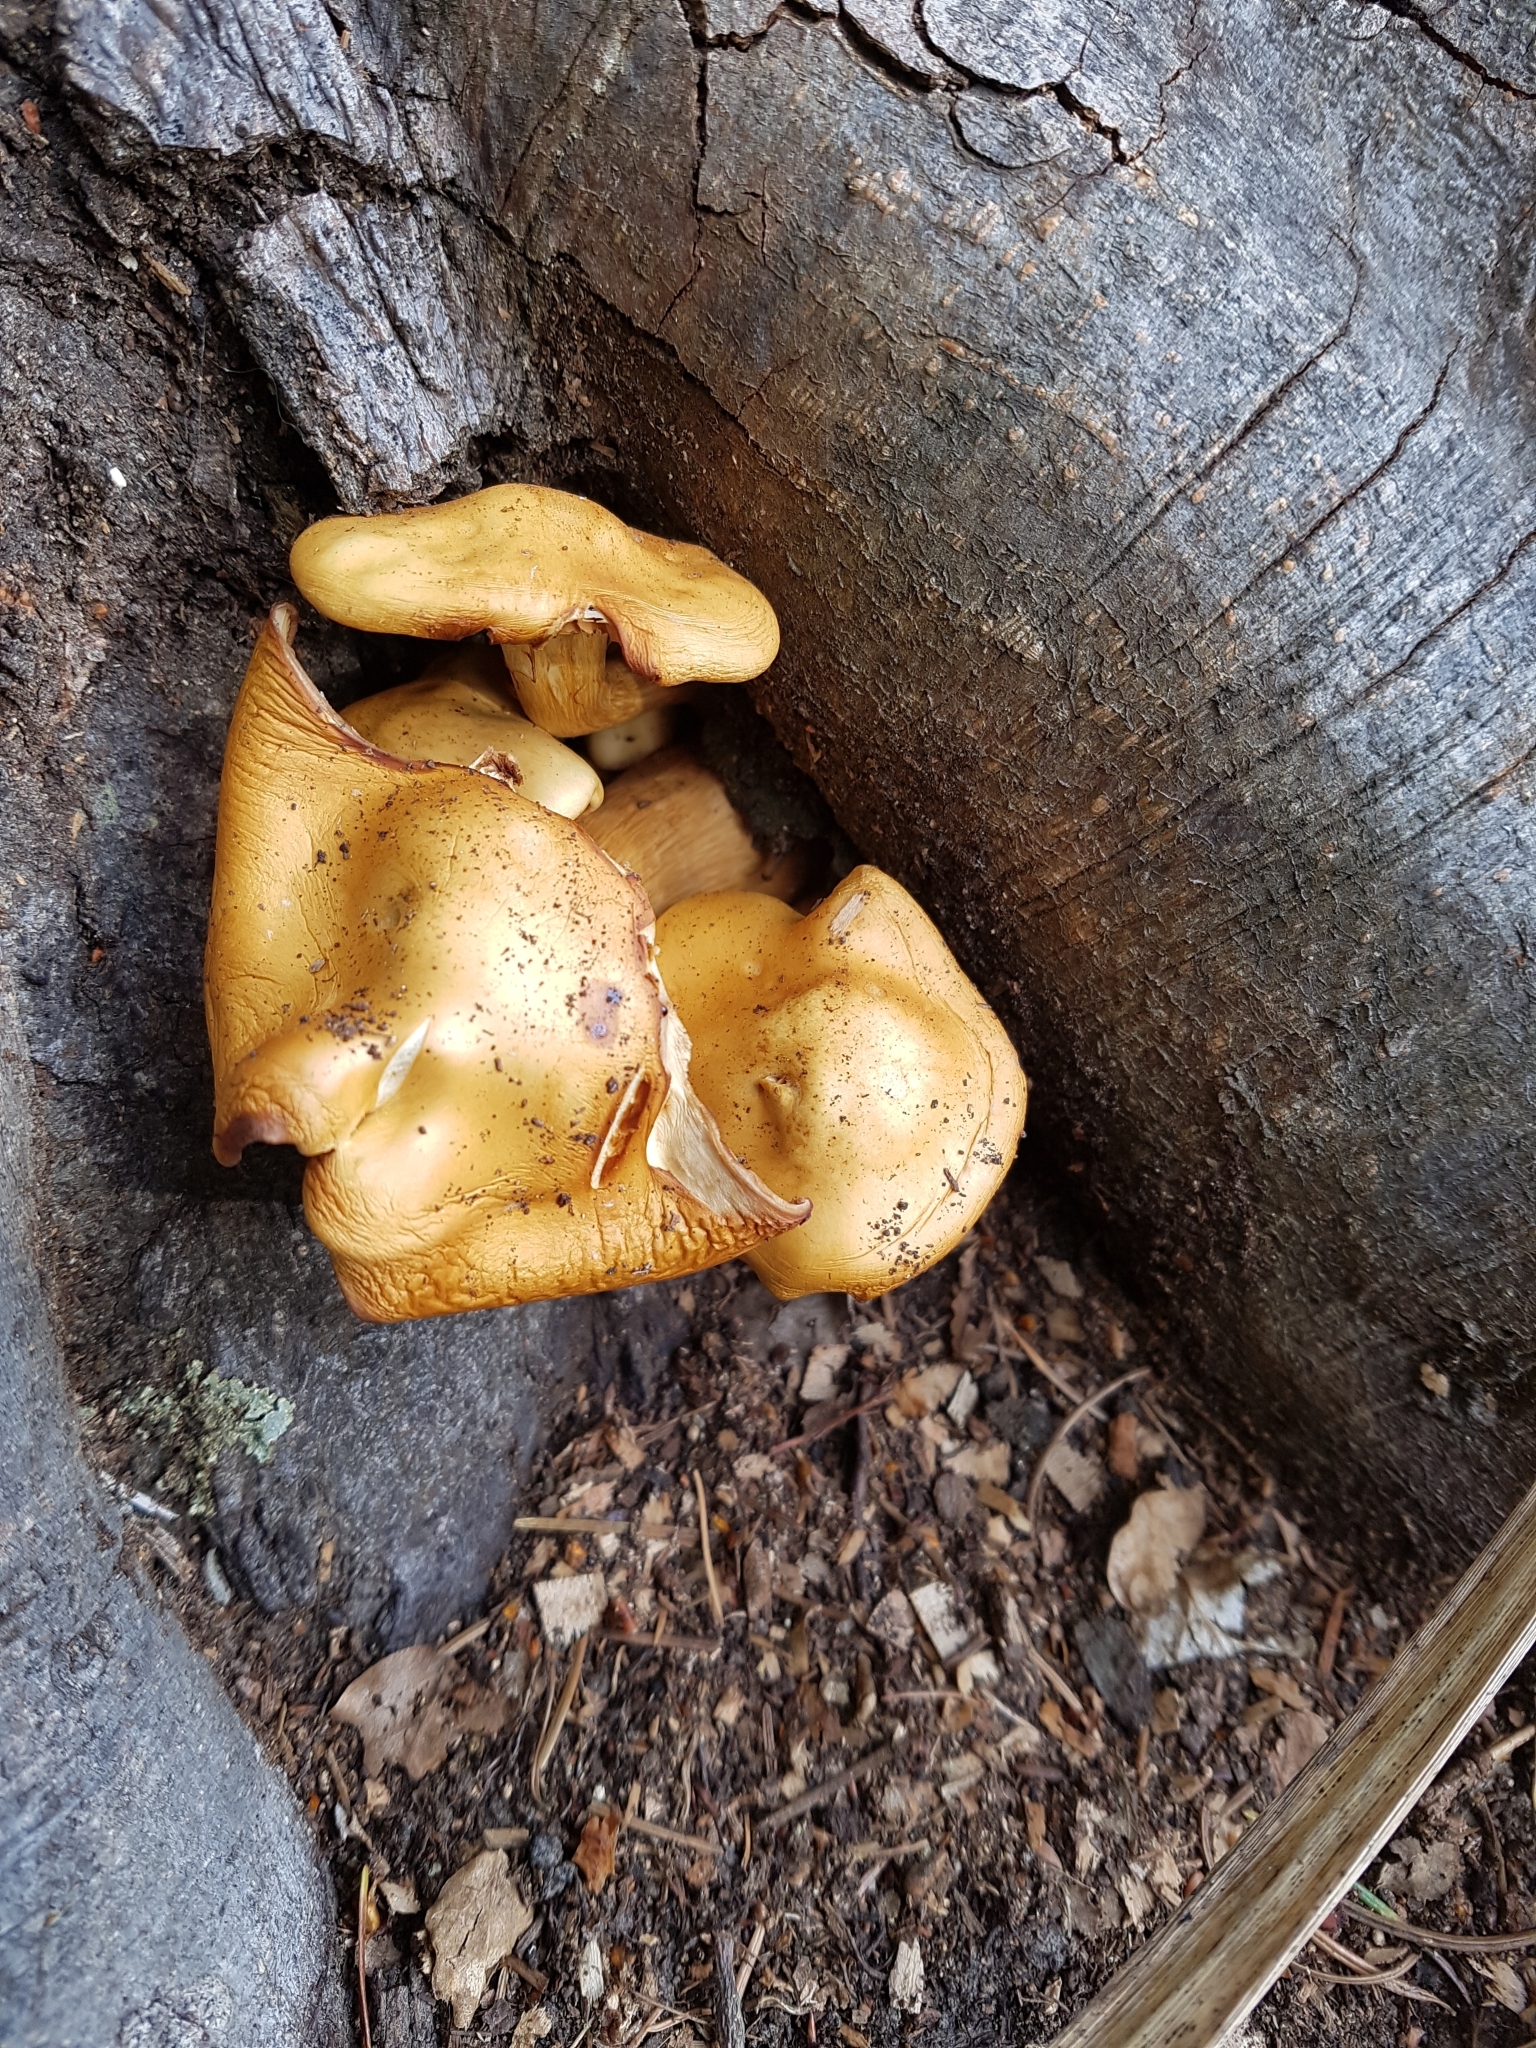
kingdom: Fungi
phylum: Basidiomycota
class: Agaricomycetes
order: Agaricales
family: Hymenogastraceae
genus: Gymnopilus
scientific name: Gymnopilus junonius
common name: Spectacular rustgill
